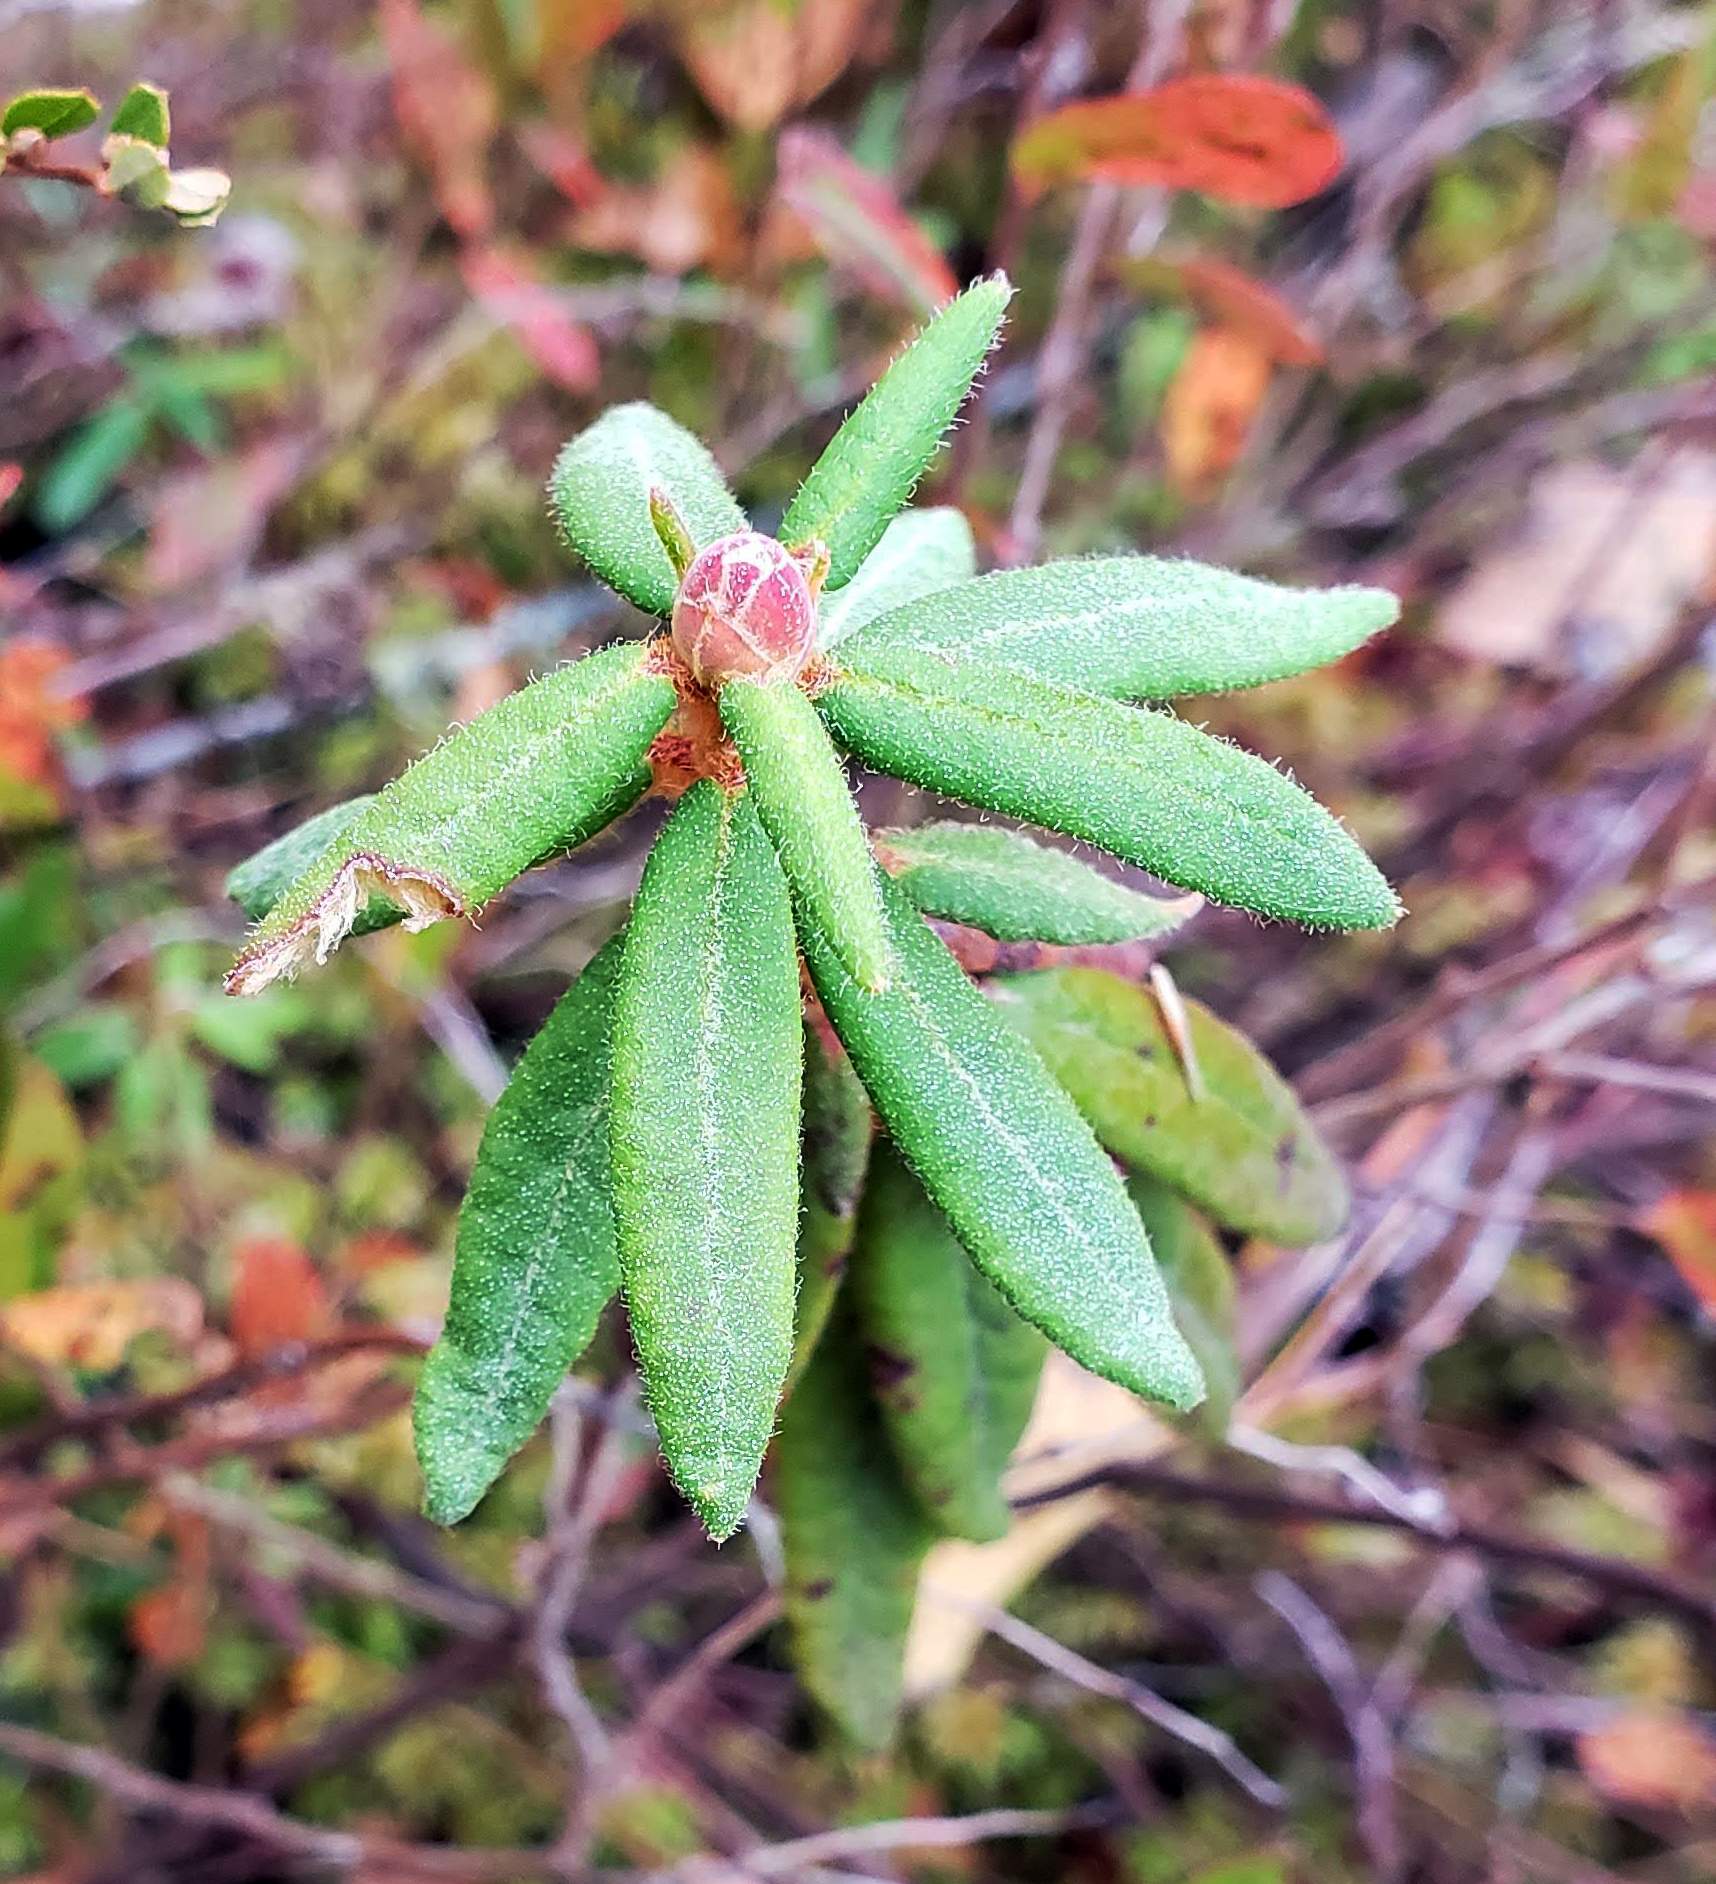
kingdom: Plantae
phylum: Tracheophyta
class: Magnoliopsida
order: Ericales
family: Ericaceae
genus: Rhododendron
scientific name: Rhododendron groenlandicum
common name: Bog labrador tea
